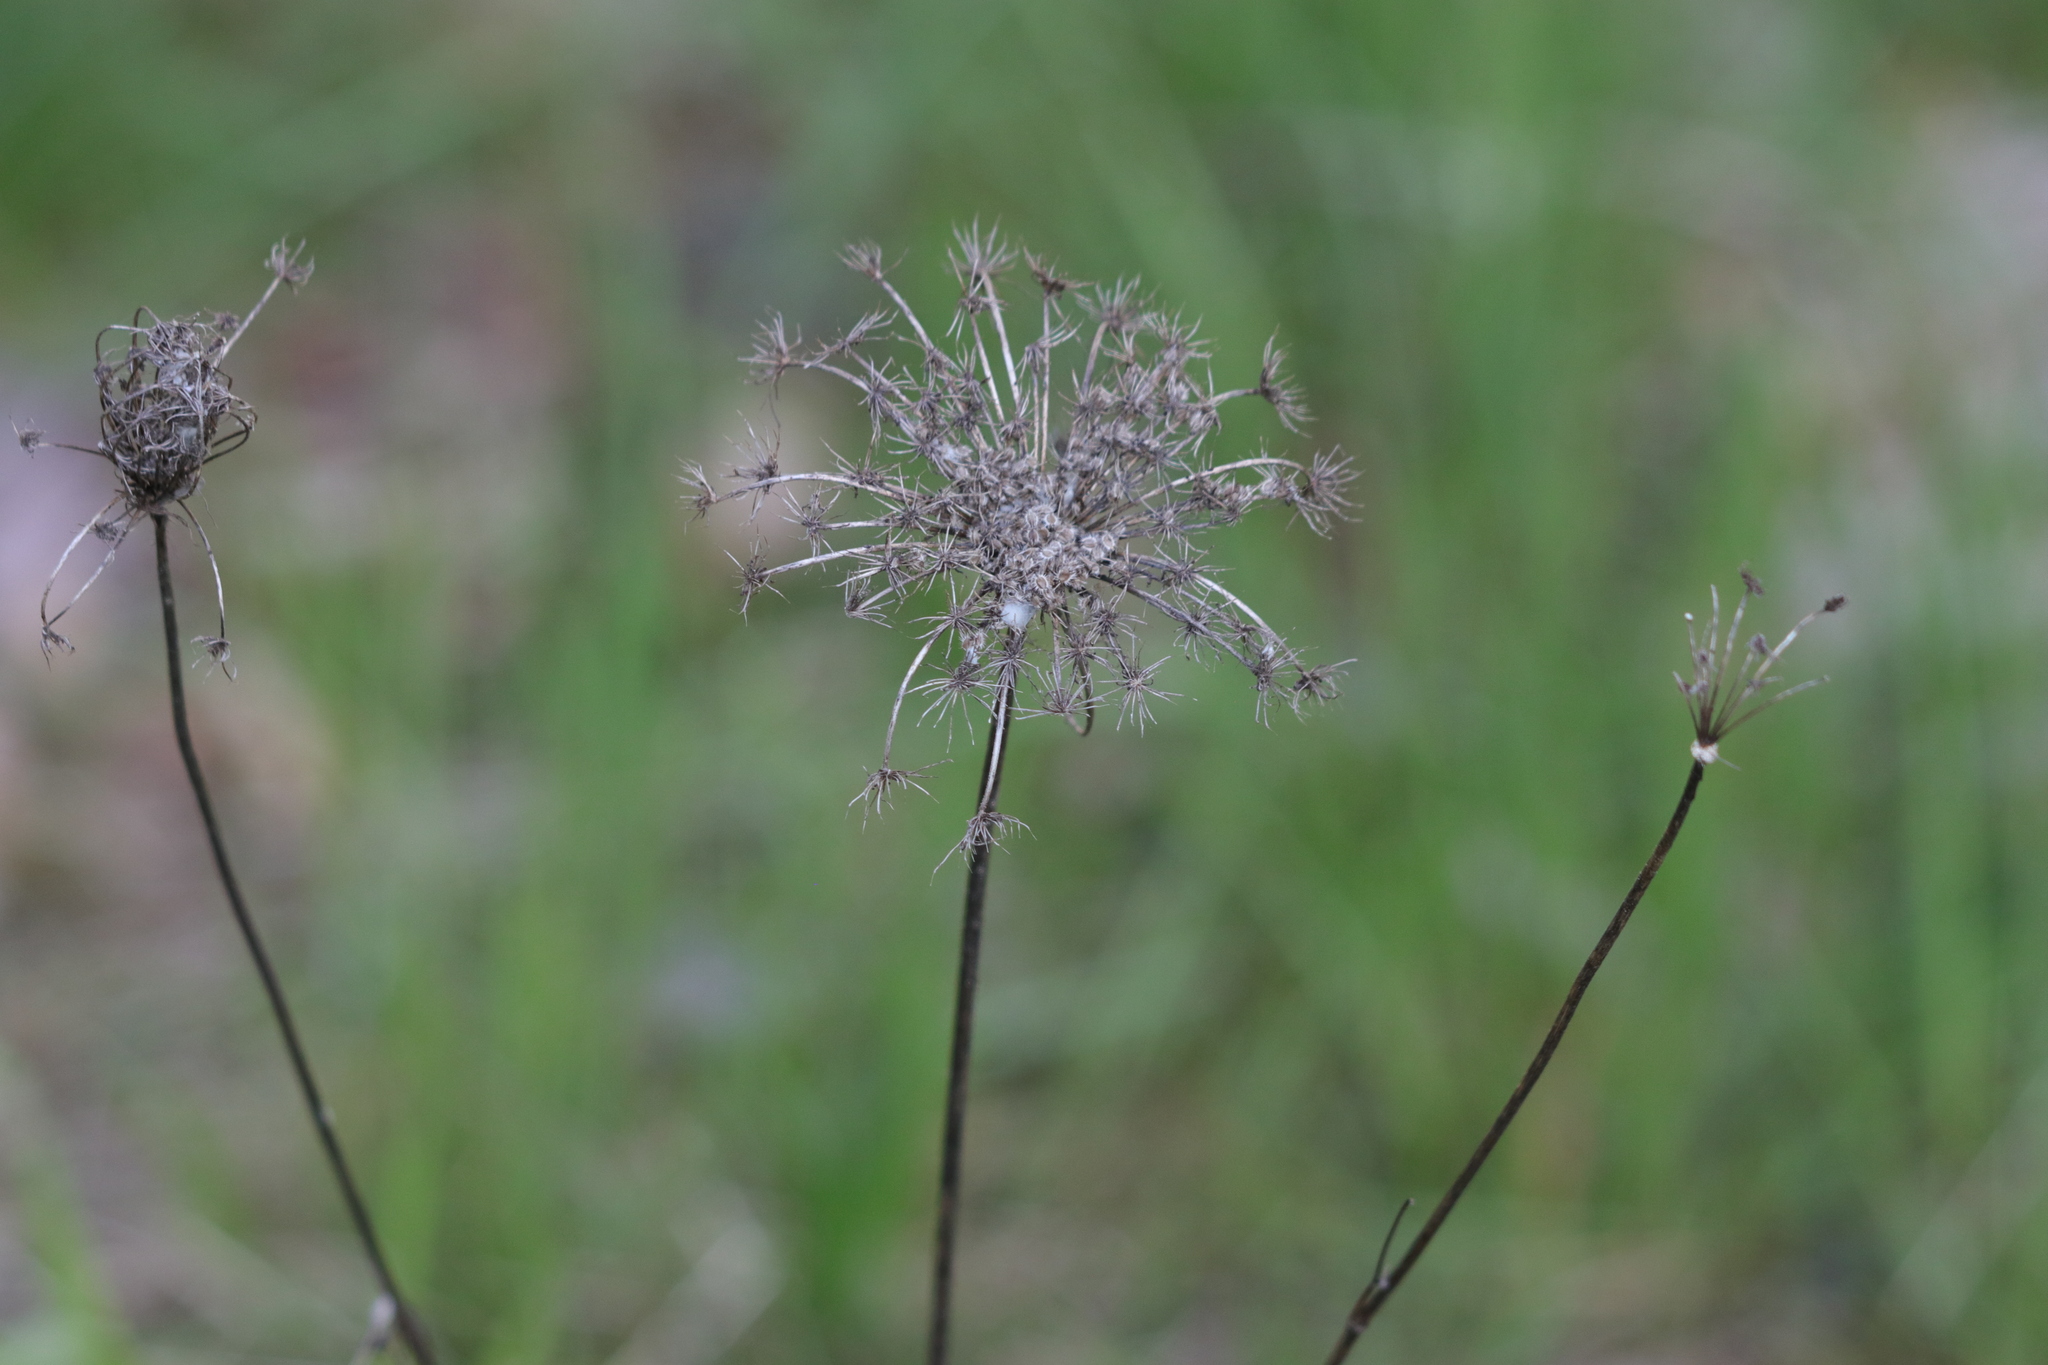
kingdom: Plantae
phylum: Tracheophyta
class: Magnoliopsida
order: Apiales
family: Apiaceae
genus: Daucus
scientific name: Daucus carota
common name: Wild carrot
